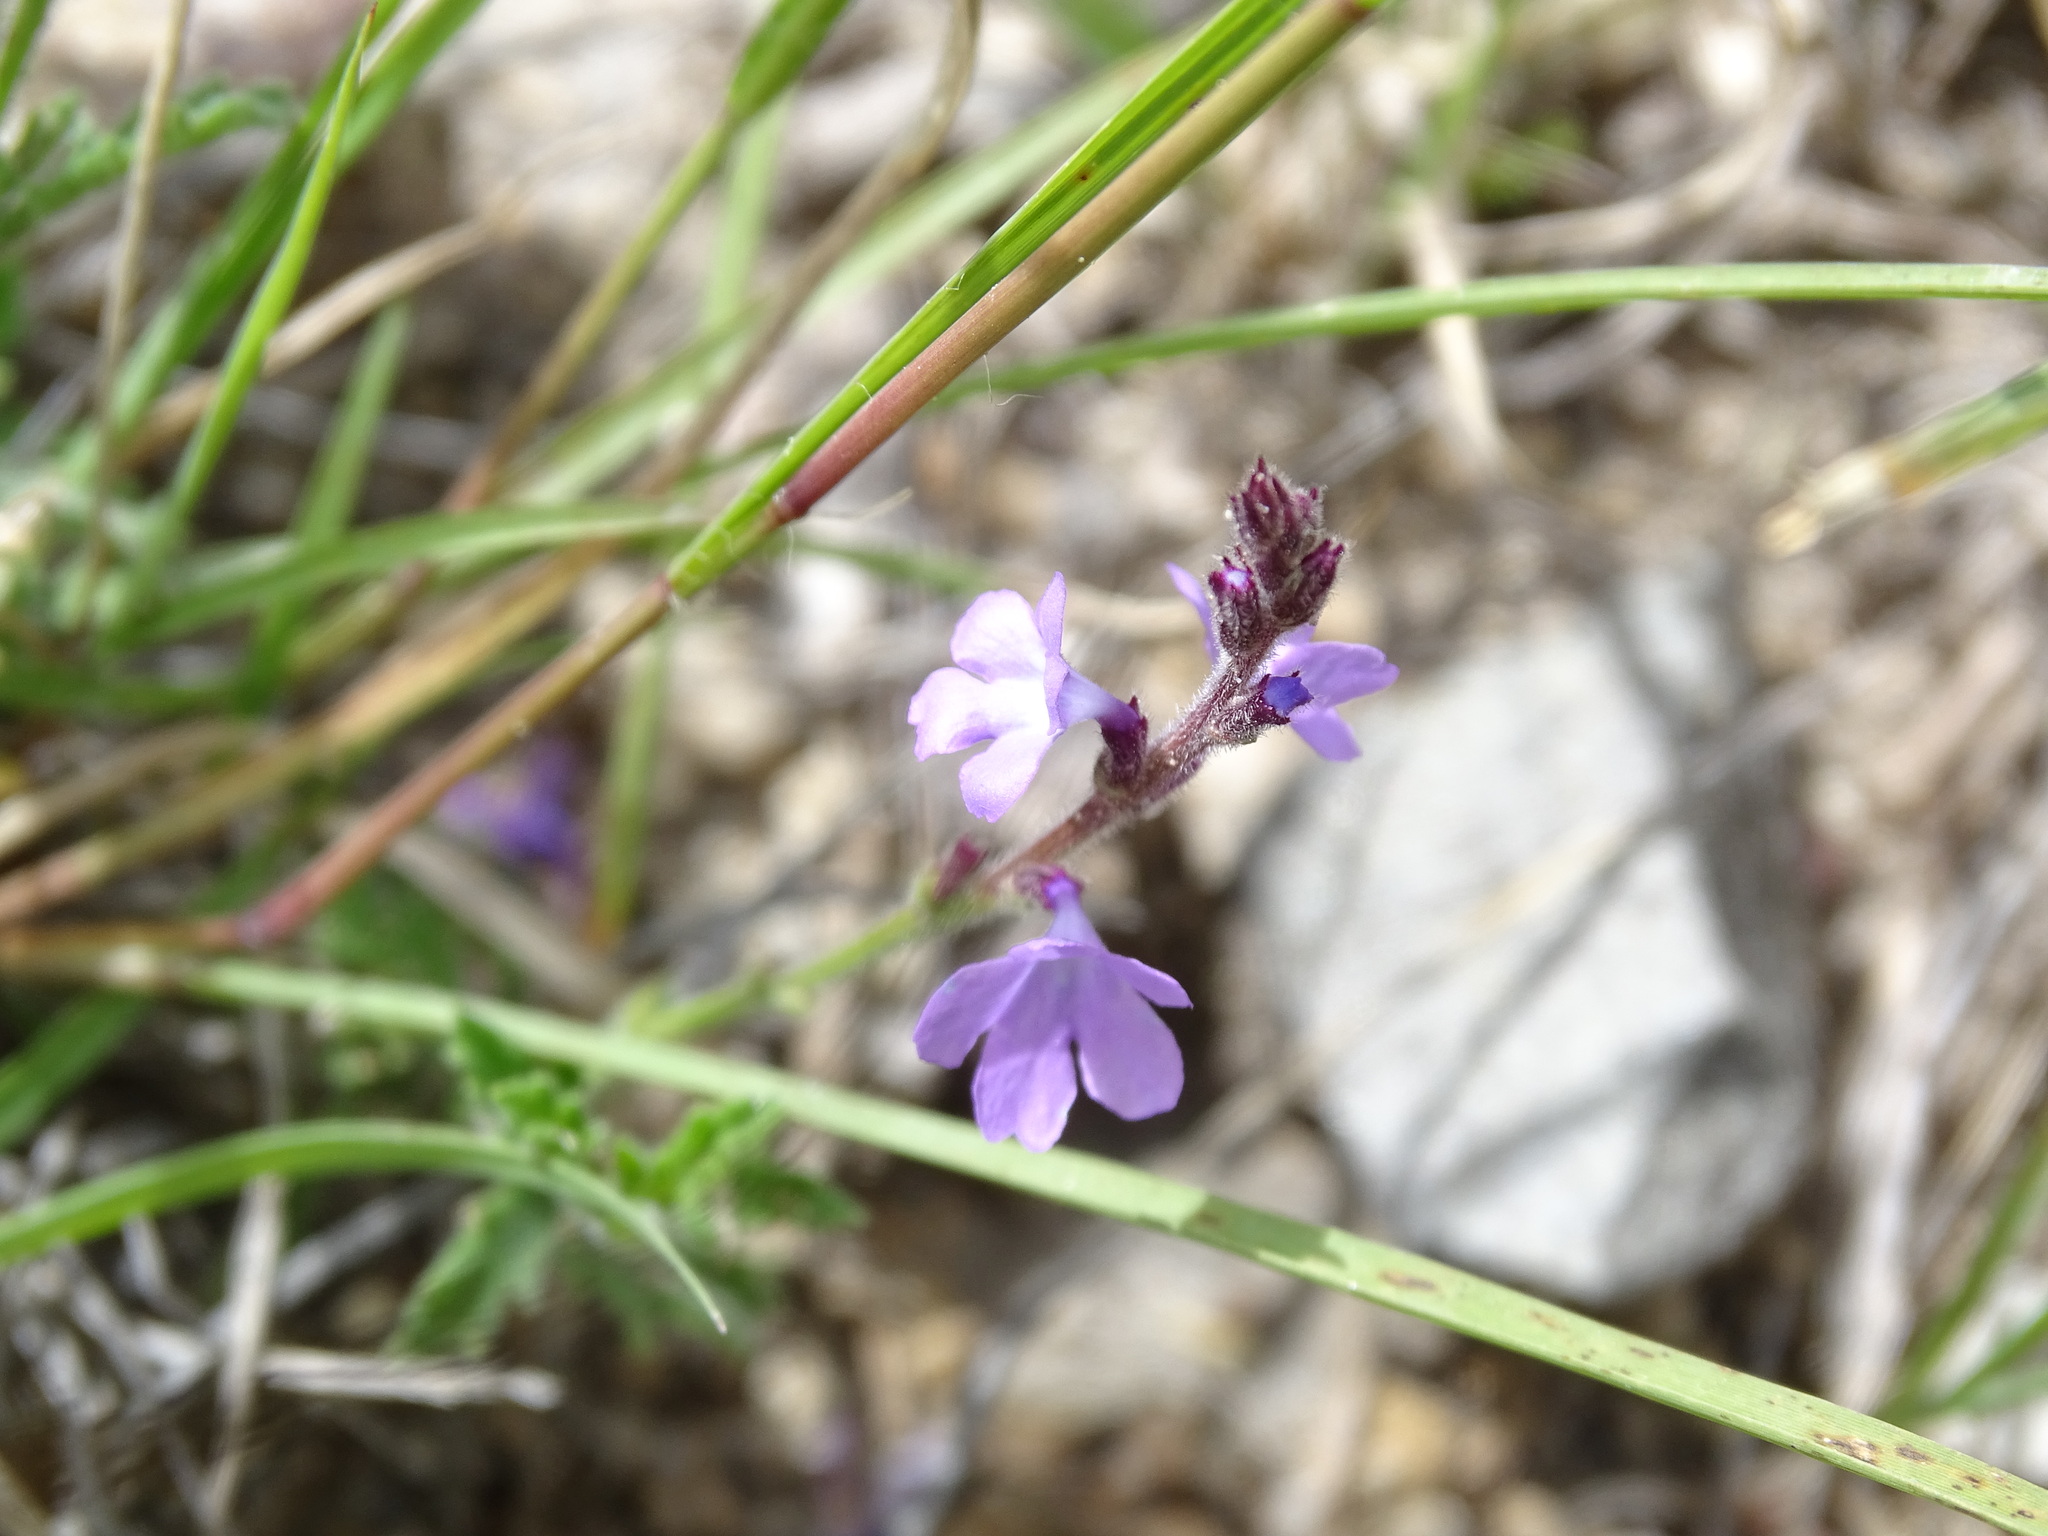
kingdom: Plantae
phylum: Tracheophyta
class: Magnoliopsida
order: Lamiales
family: Verbenaceae
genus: Verbena
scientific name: Verbena canescens
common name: Gray vervain
